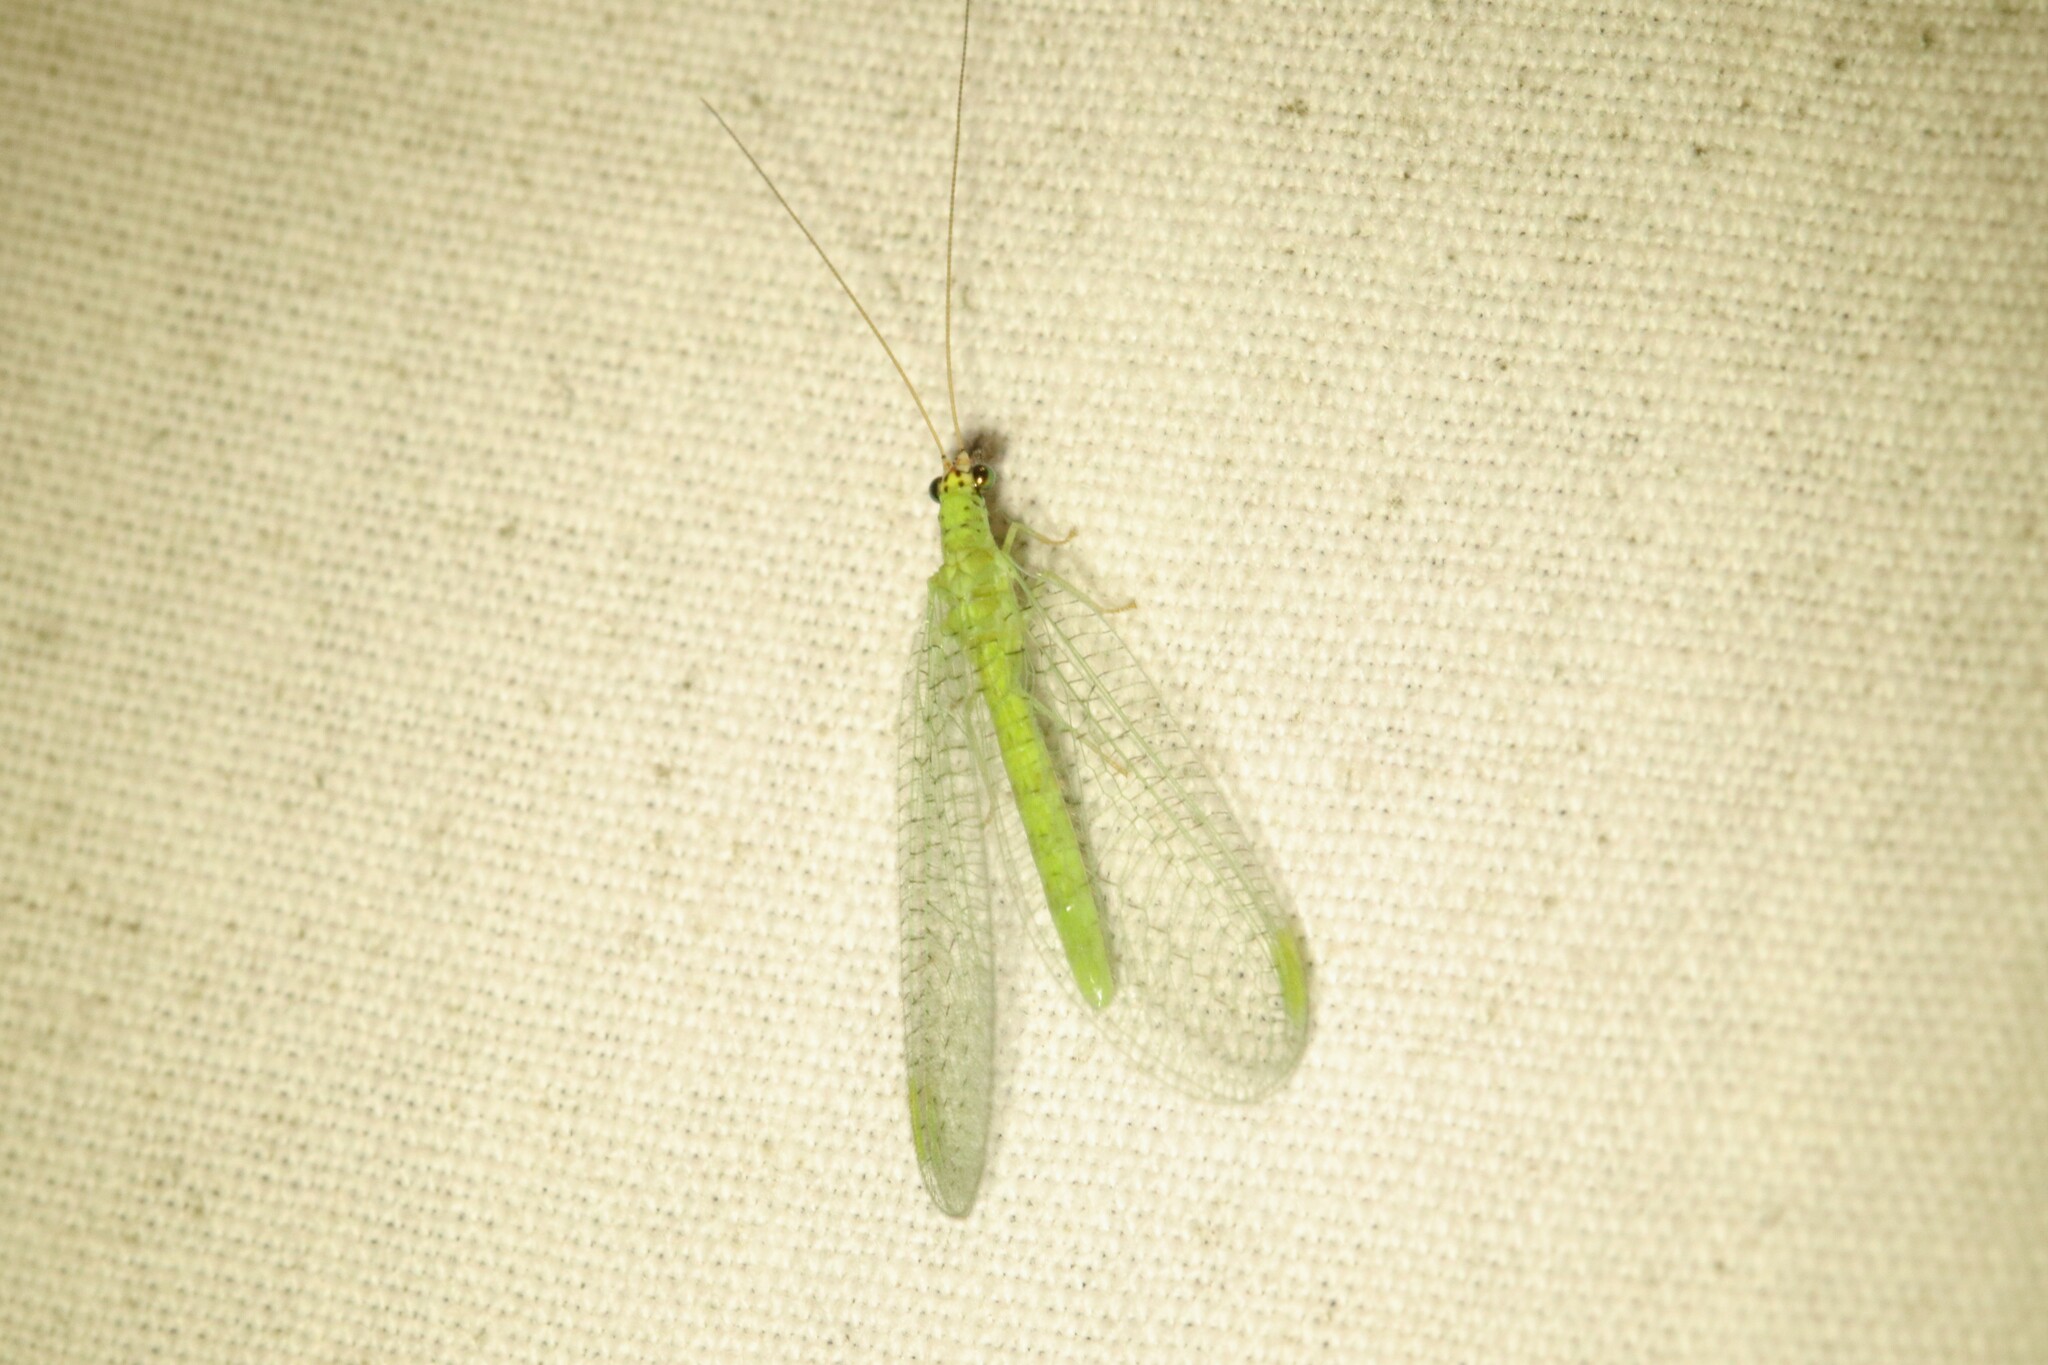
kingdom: Animalia
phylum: Arthropoda
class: Insecta
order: Neuroptera
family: Chrysopidae
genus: Chrysopa
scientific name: Chrysopa oculata
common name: Golden-eyed lacewing
